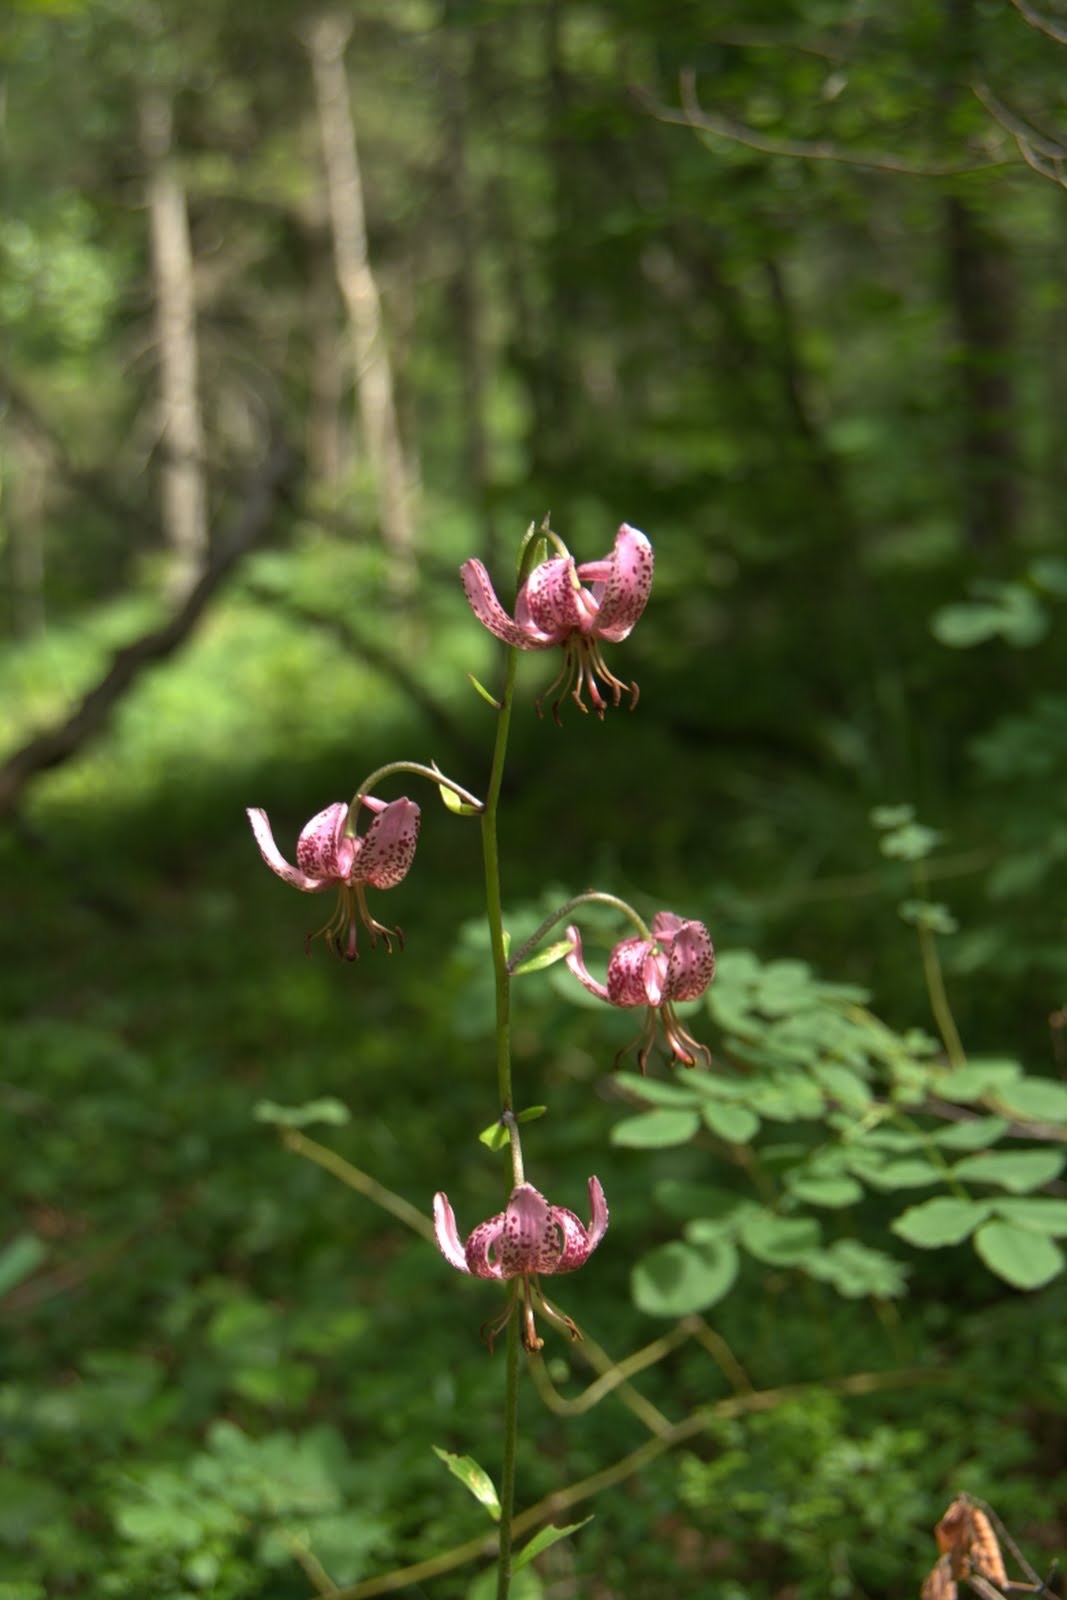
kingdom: Plantae
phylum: Tracheophyta
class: Liliopsida
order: Liliales
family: Liliaceae
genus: Lilium
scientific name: Lilium martagon
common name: Martagon lily
